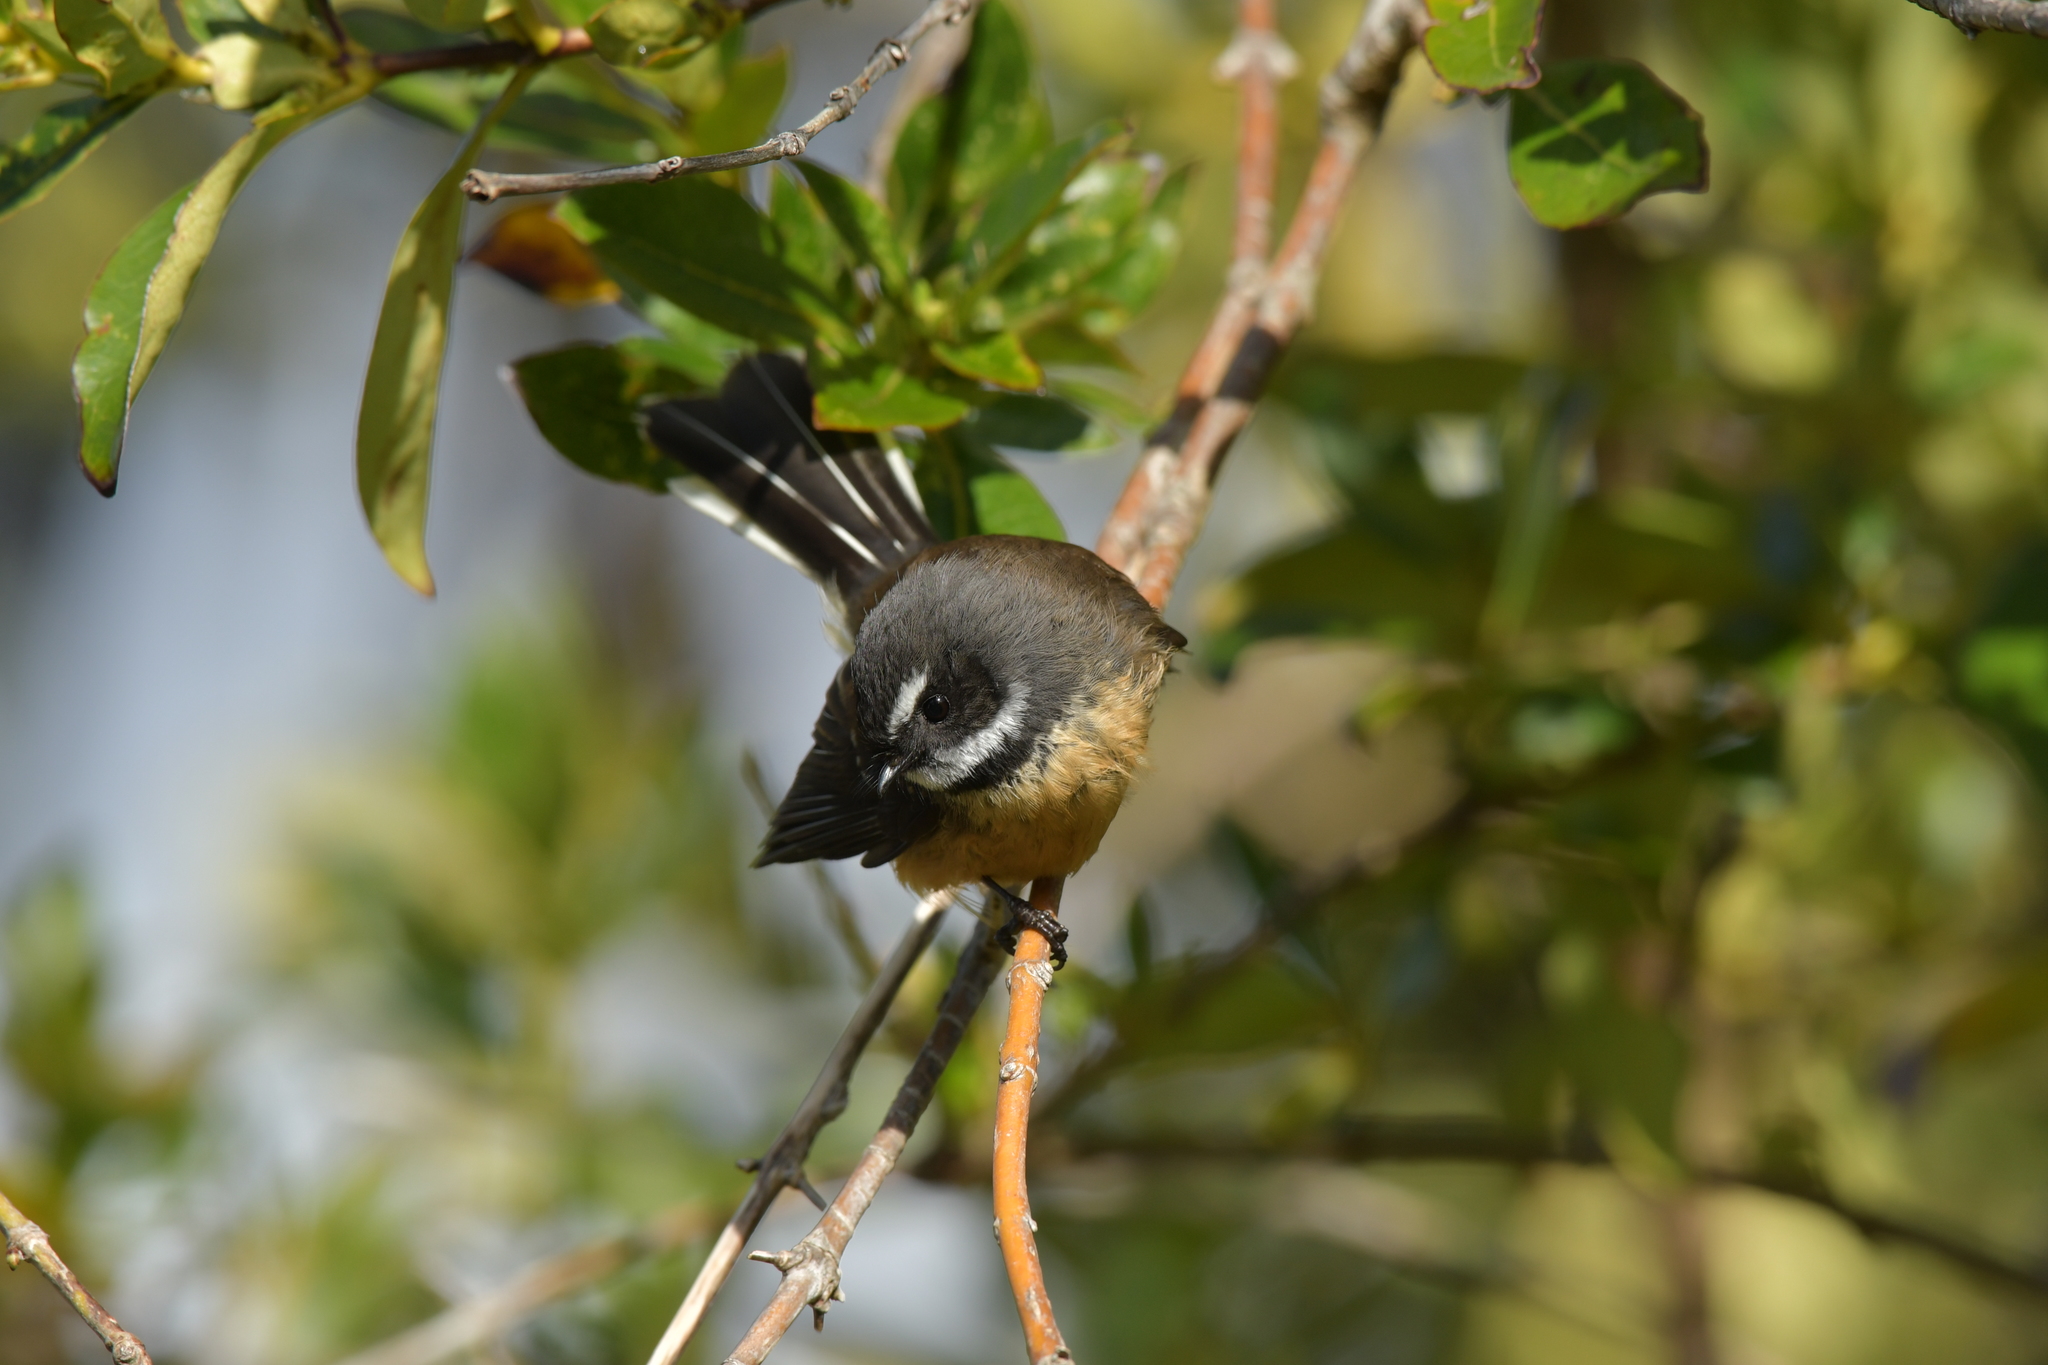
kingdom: Animalia
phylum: Chordata
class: Aves
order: Passeriformes
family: Rhipiduridae
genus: Rhipidura
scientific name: Rhipidura fuliginosa
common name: New zealand fantail
